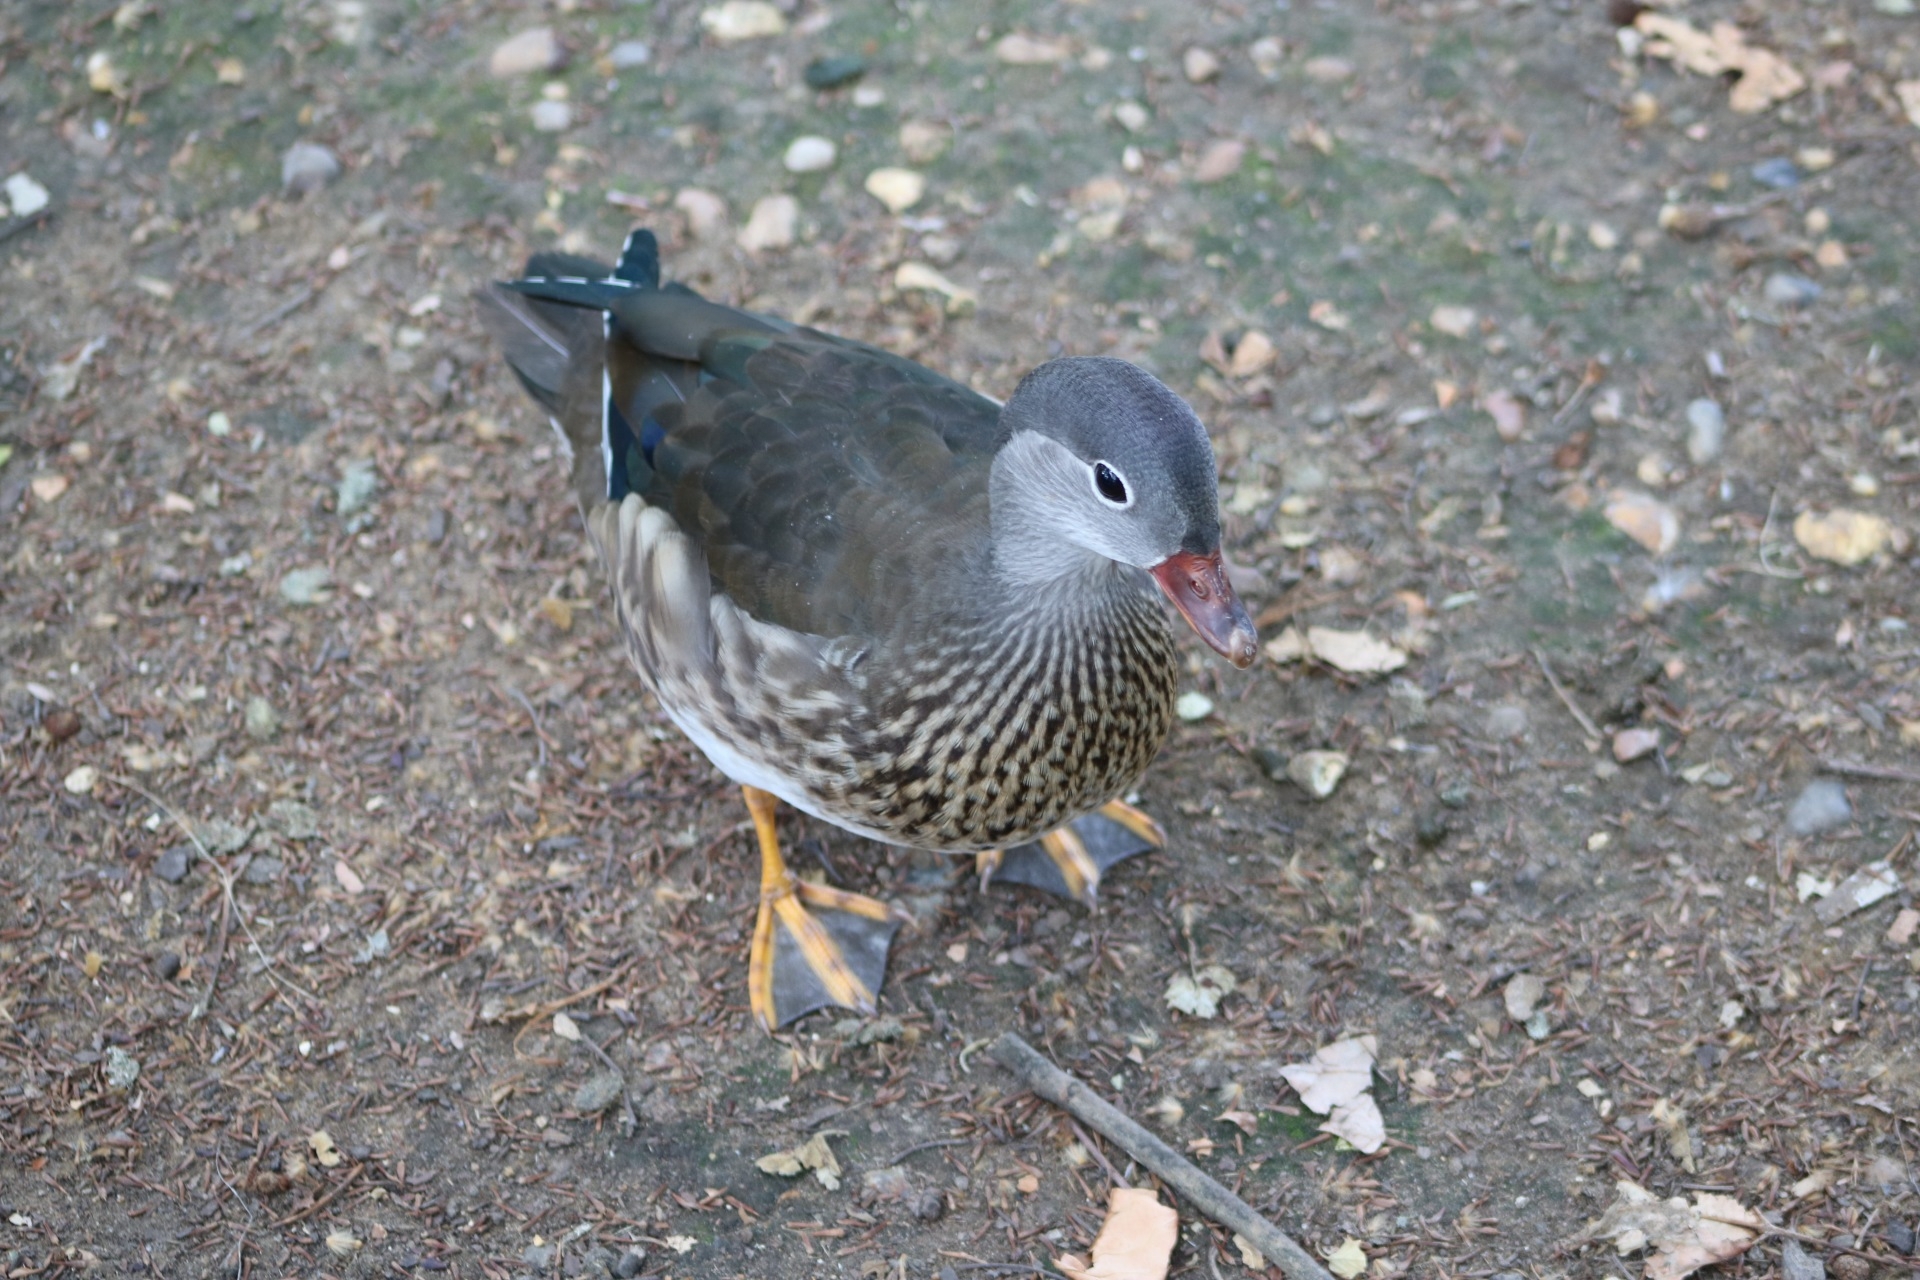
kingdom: Animalia
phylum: Chordata
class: Aves
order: Anseriformes
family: Anatidae
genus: Aix
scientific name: Aix galericulata
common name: Mandarin duck
